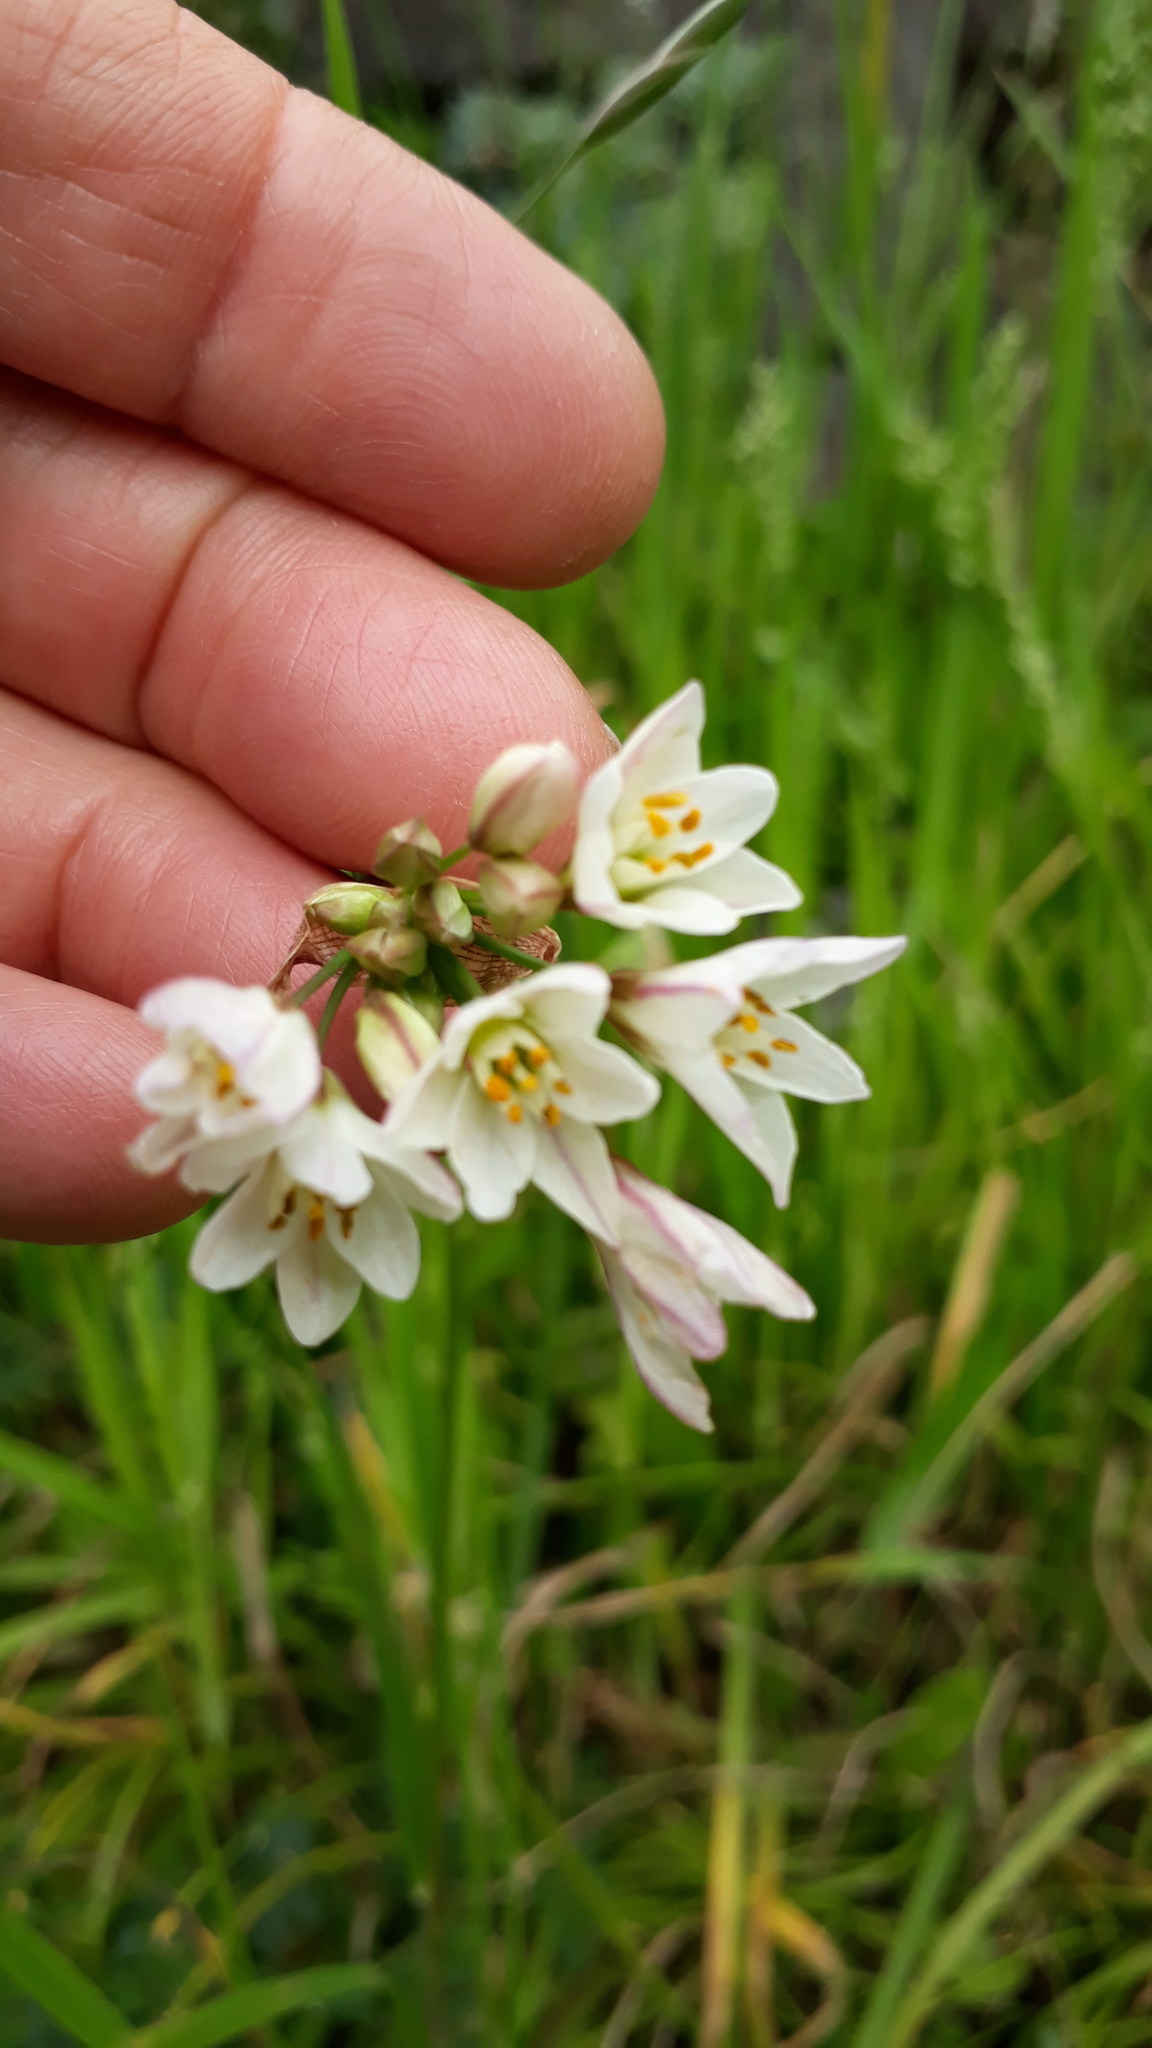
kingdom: Plantae
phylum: Tracheophyta
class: Liliopsida
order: Asparagales
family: Amaryllidaceae
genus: Nothoscordum
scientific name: Nothoscordum gracile
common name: Slender false garlic
